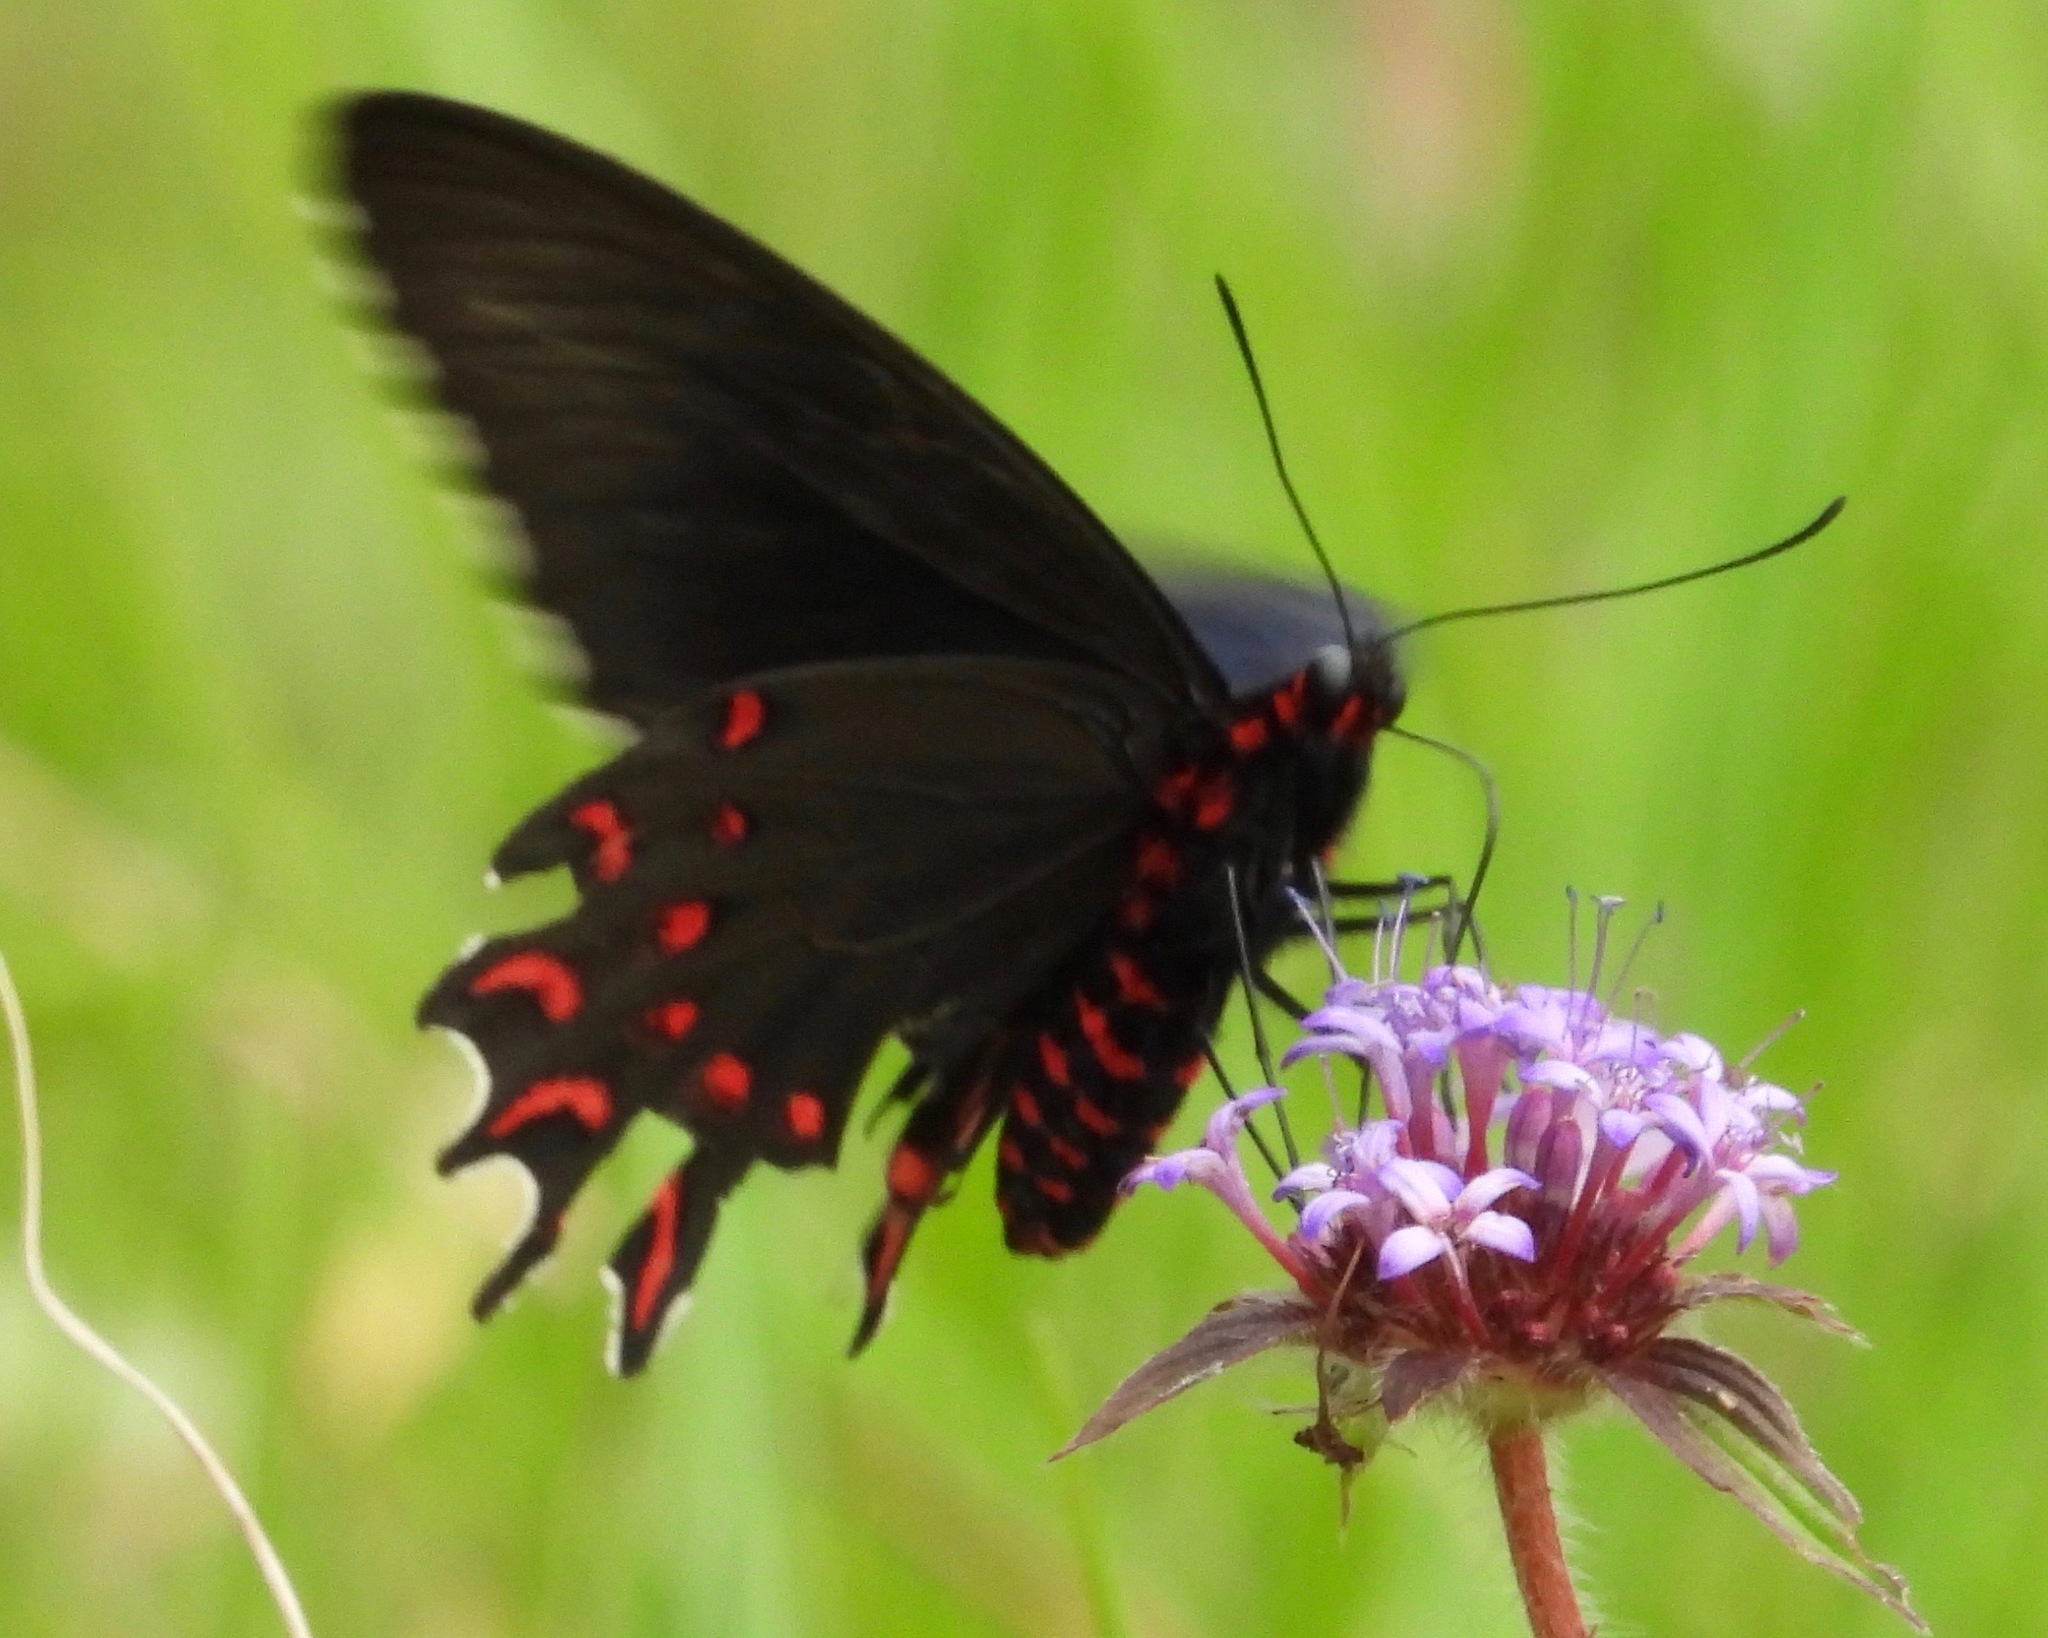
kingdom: Animalia
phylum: Arthropoda
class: Insecta
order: Lepidoptera
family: Papilionidae
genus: Parides
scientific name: Parides photinus
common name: Pink-spotted cattleheart
